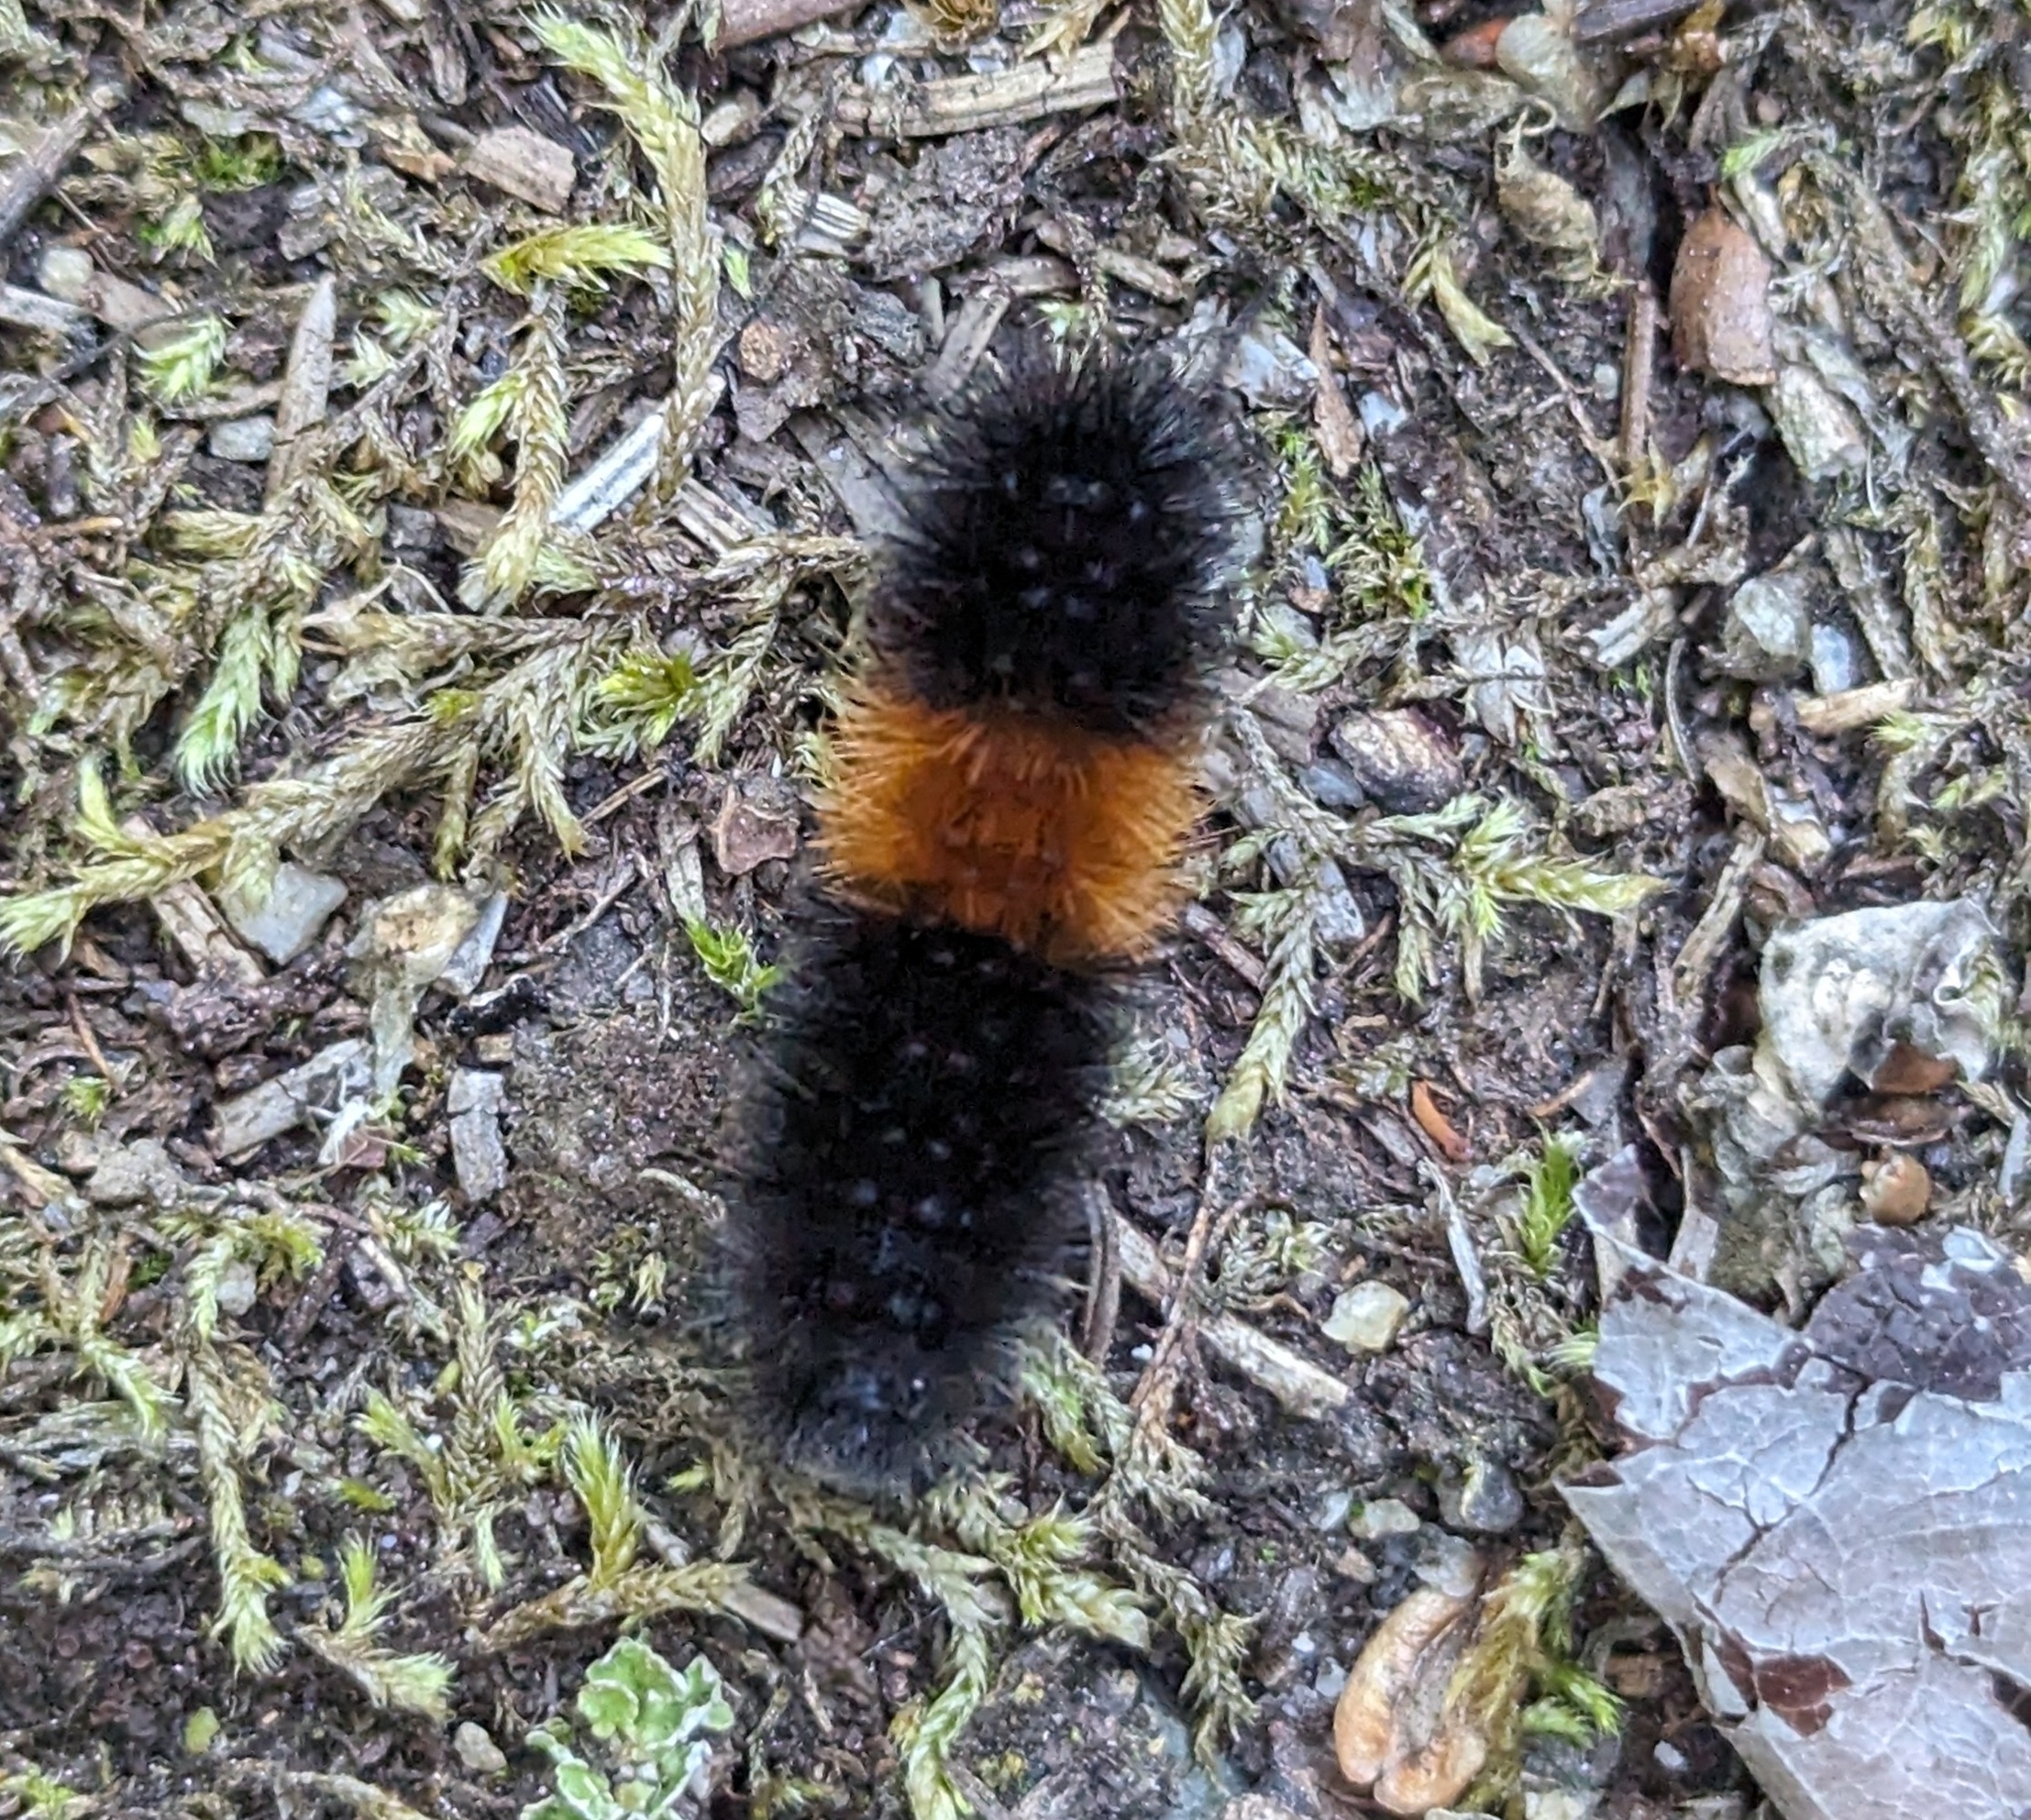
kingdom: Animalia
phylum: Arthropoda
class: Insecta
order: Lepidoptera
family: Erebidae
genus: Pyrrharctia
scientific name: Pyrrharctia isabella
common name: Isabella tiger moth
